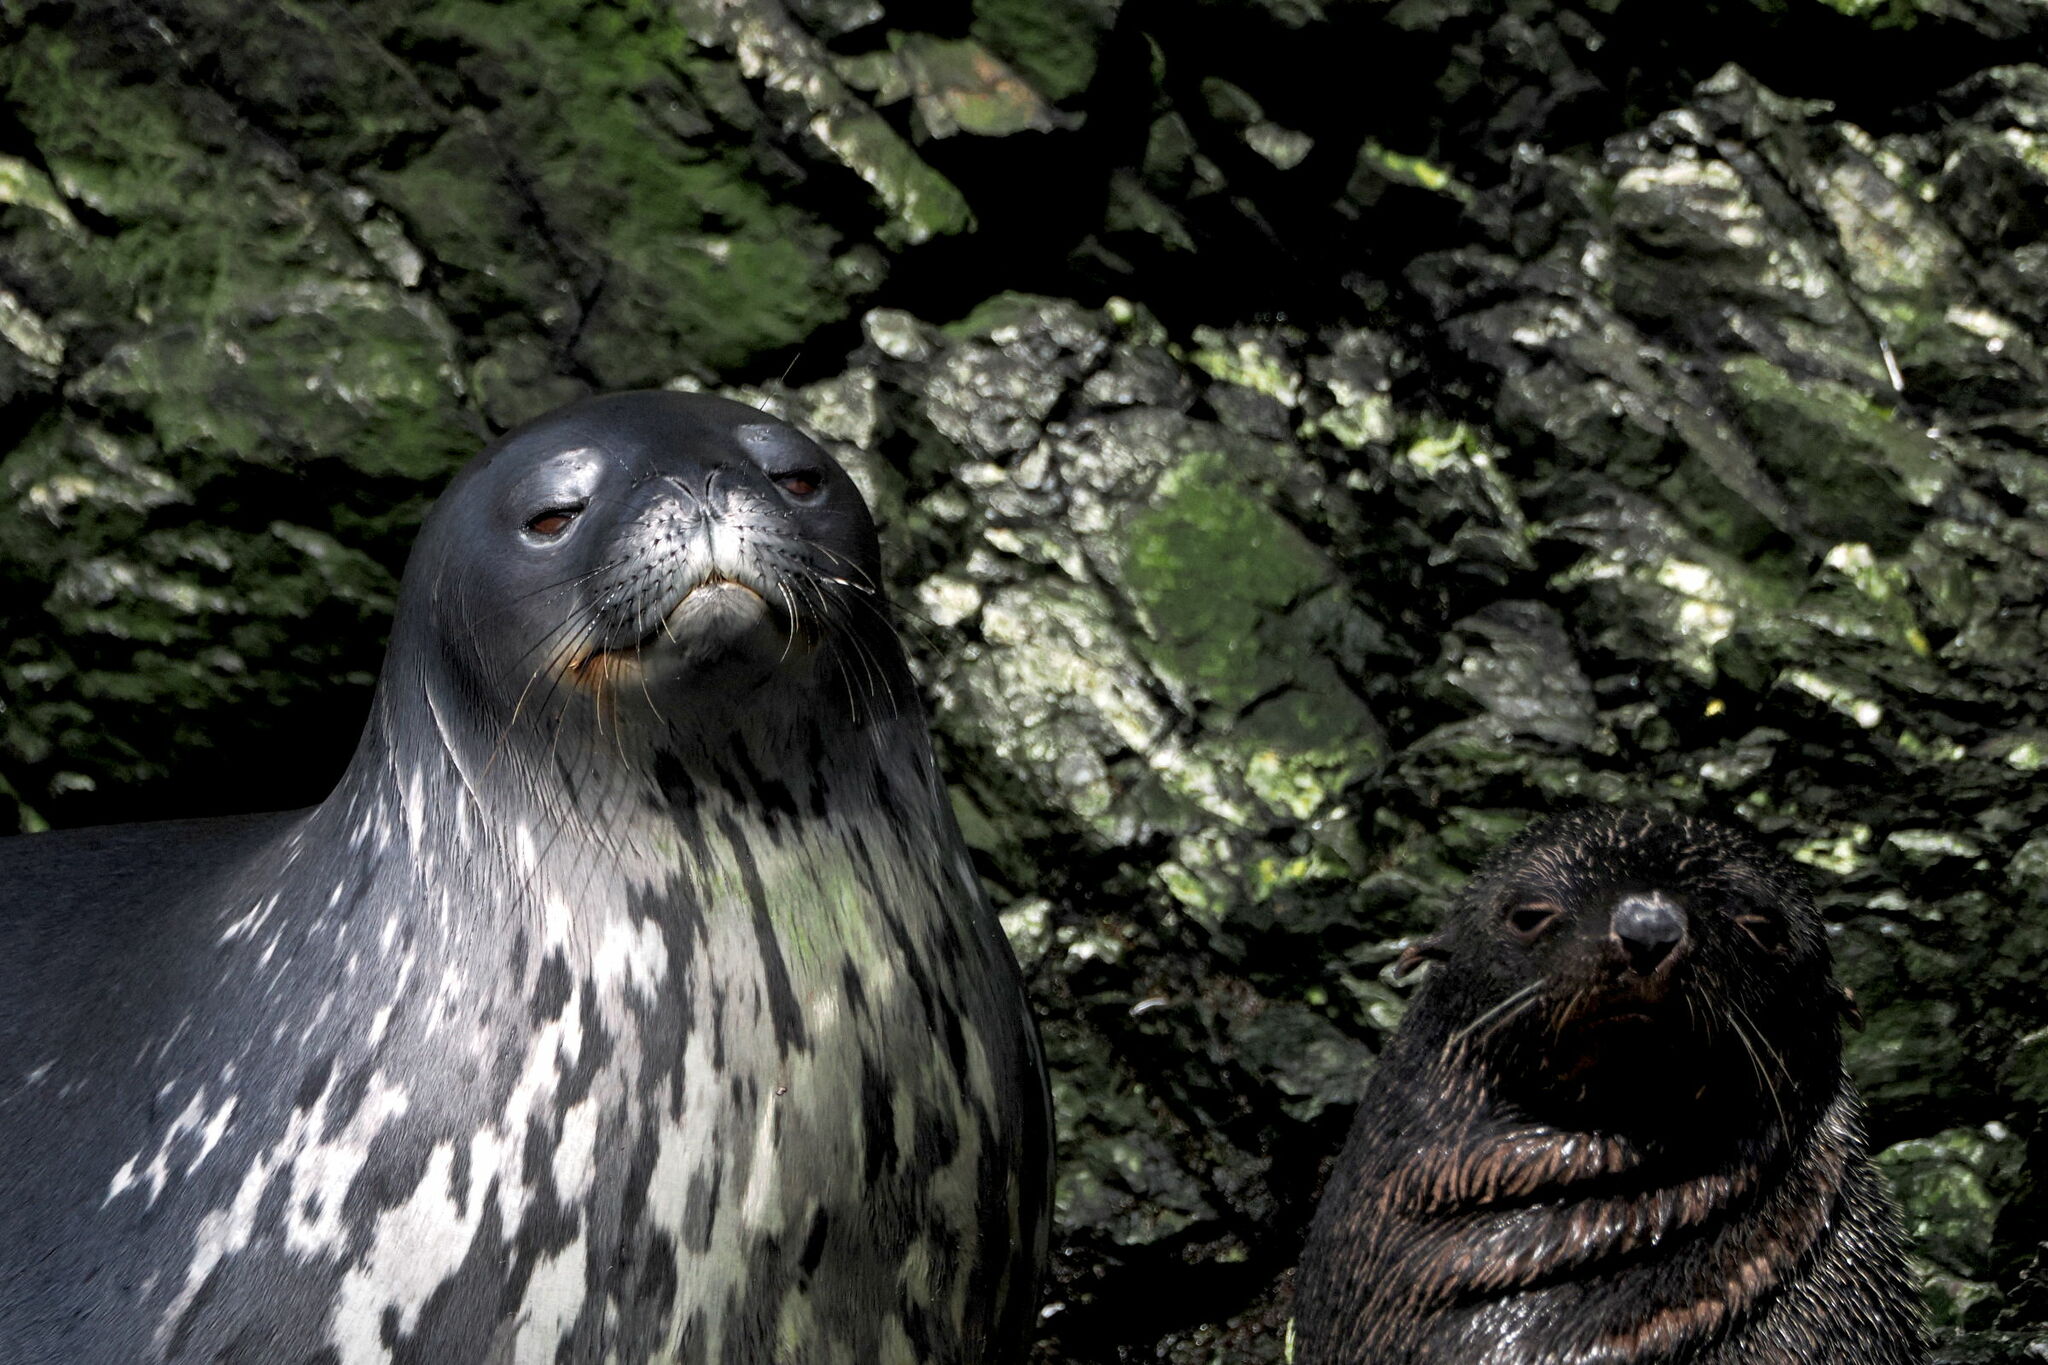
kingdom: Animalia
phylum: Chordata
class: Mammalia
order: Carnivora
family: Phocidae
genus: Leptonychotes
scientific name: Leptonychotes weddellii
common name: Weddell seal
